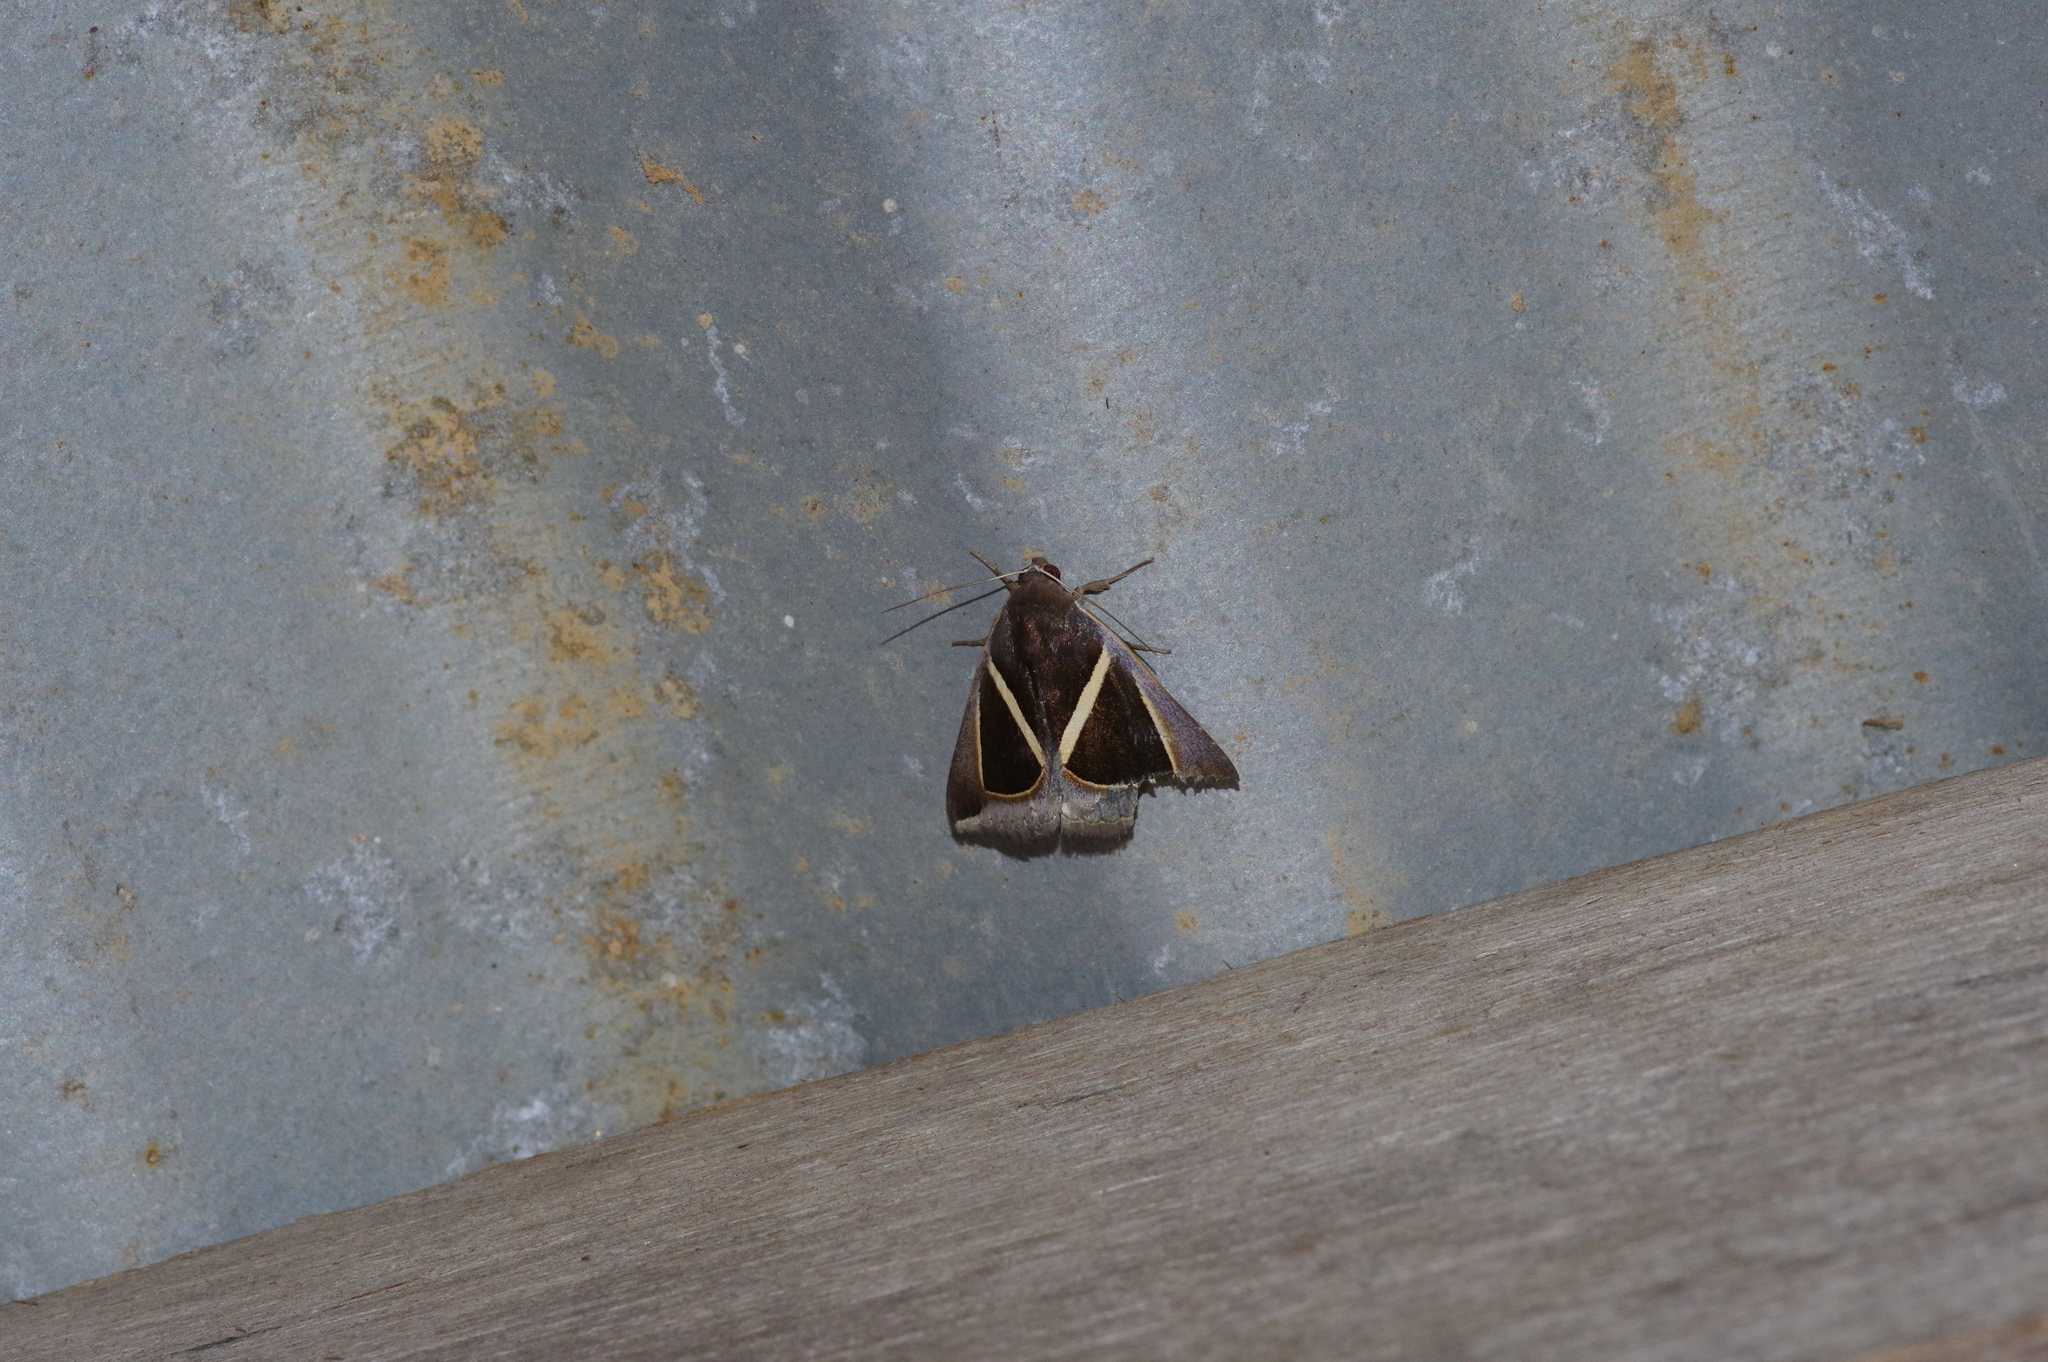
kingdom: Animalia
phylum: Arthropoda
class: Insecta
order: Lepidoptera
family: Erebidae
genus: Chalciope
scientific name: Chalciope mygdon
